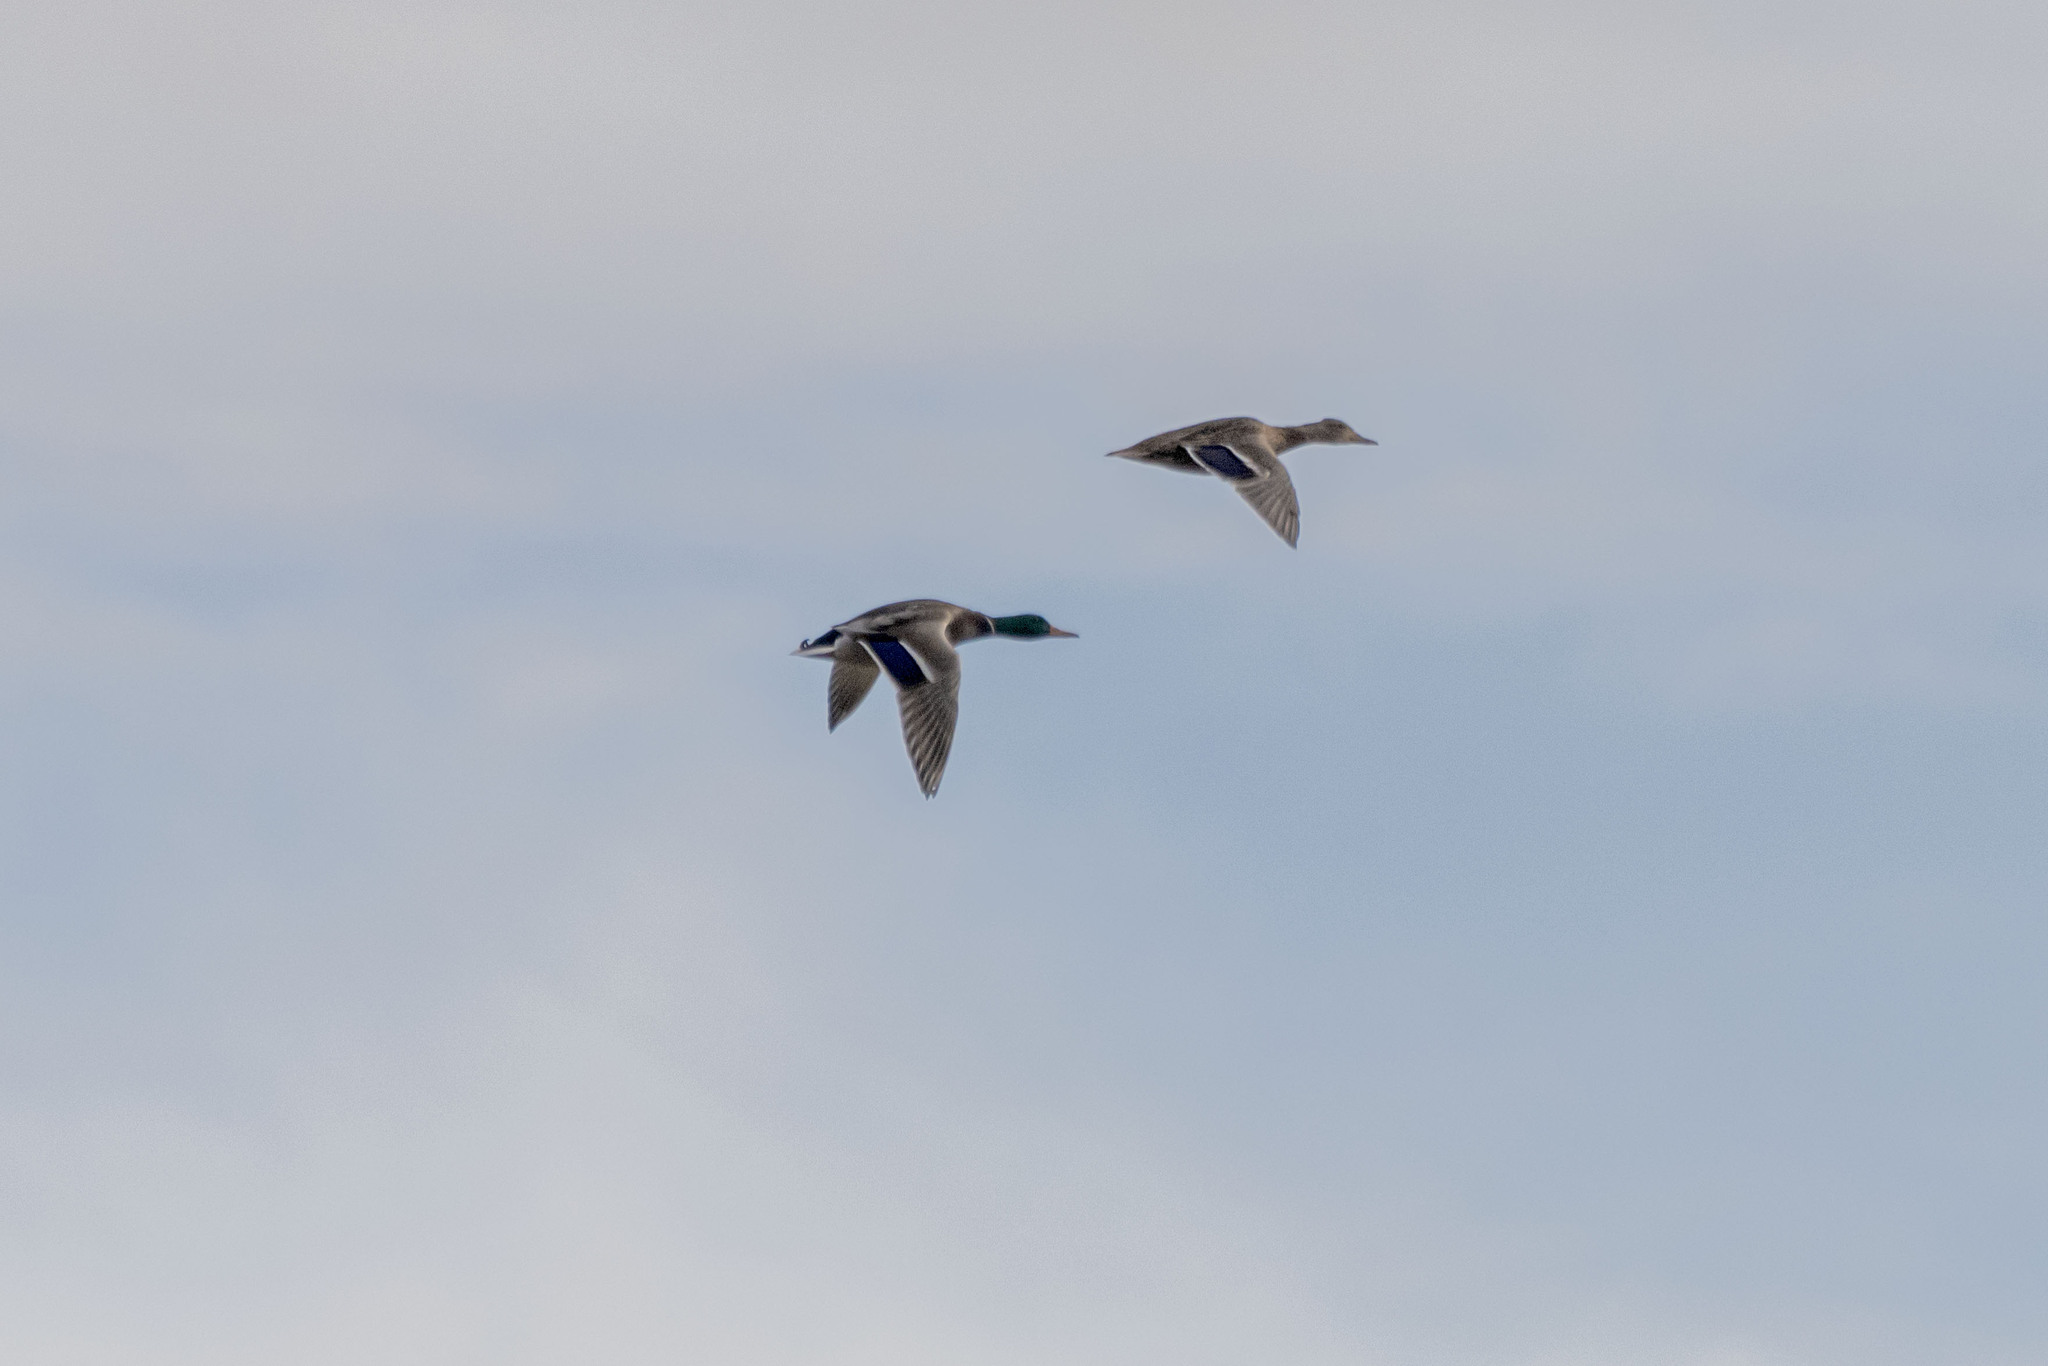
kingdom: Animalia
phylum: Chordata
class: Aves
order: Anseriformes
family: Anatidae
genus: Anas
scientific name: Anas platyrhynchos
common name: Mallard
